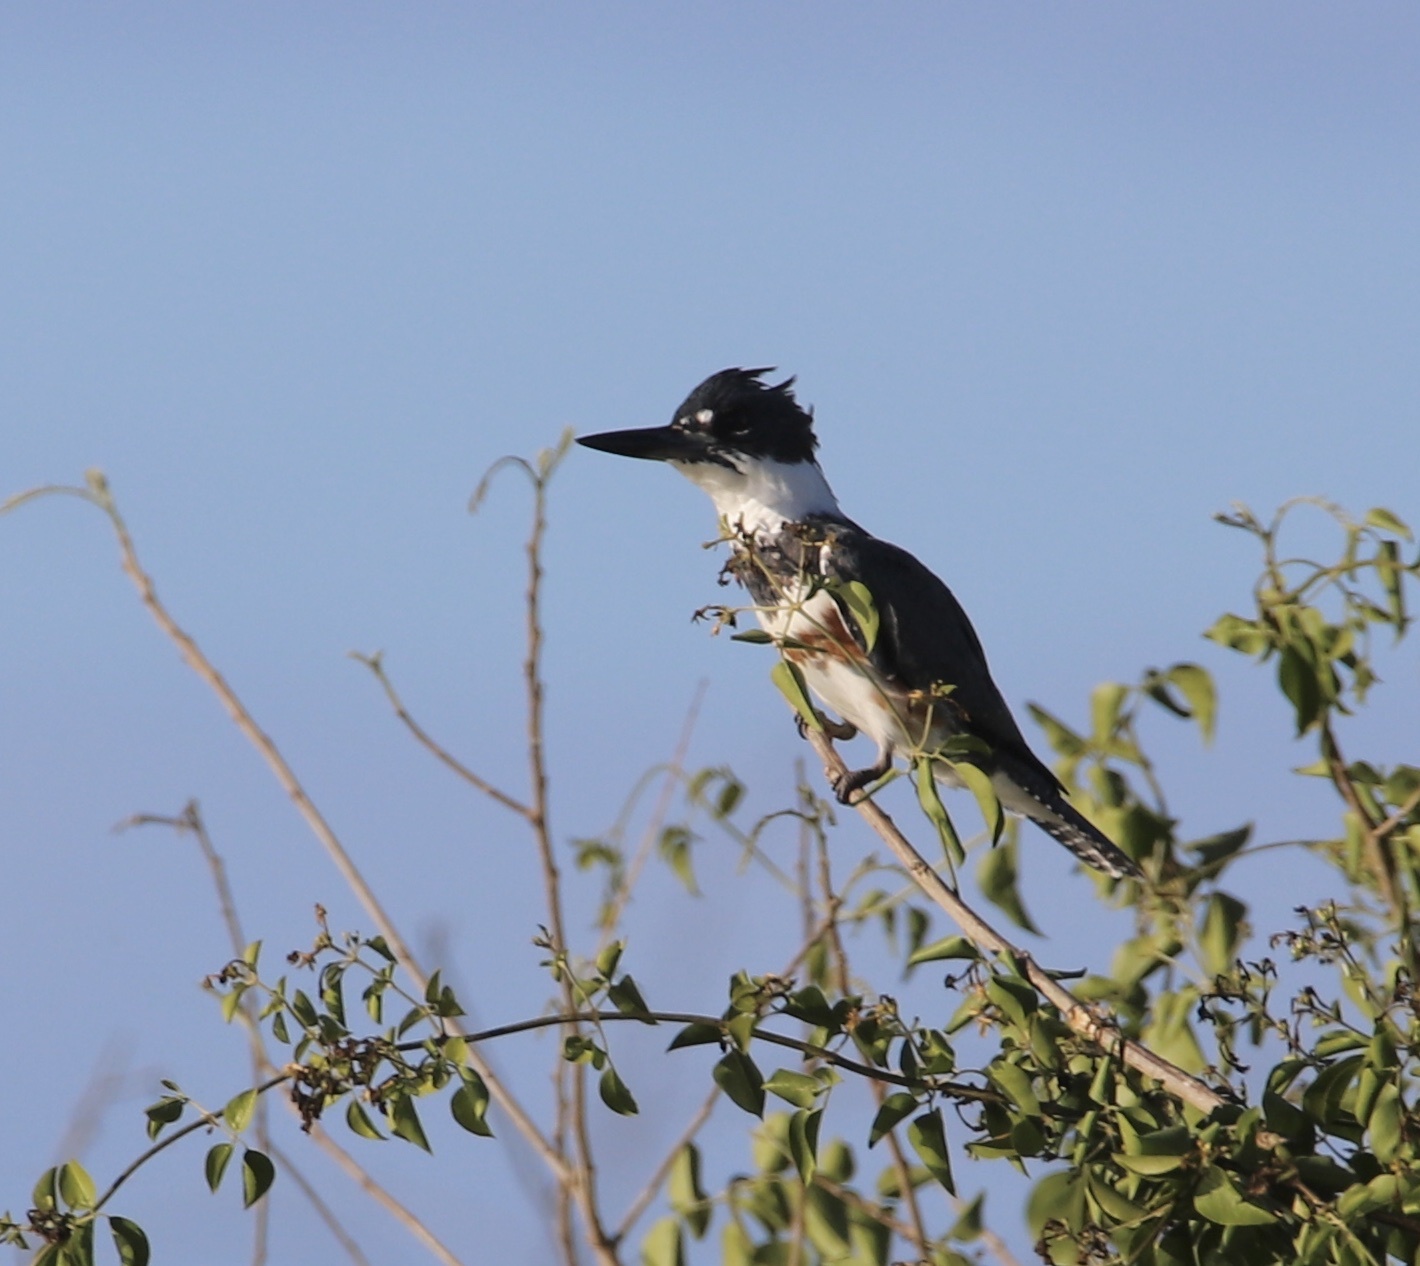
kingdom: Animalia
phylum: Chordata
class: Aves
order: Coraciiformes
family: Alcedinidae
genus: Megaceryle
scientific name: Megaceryle alcyon
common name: Belted kingfisher
